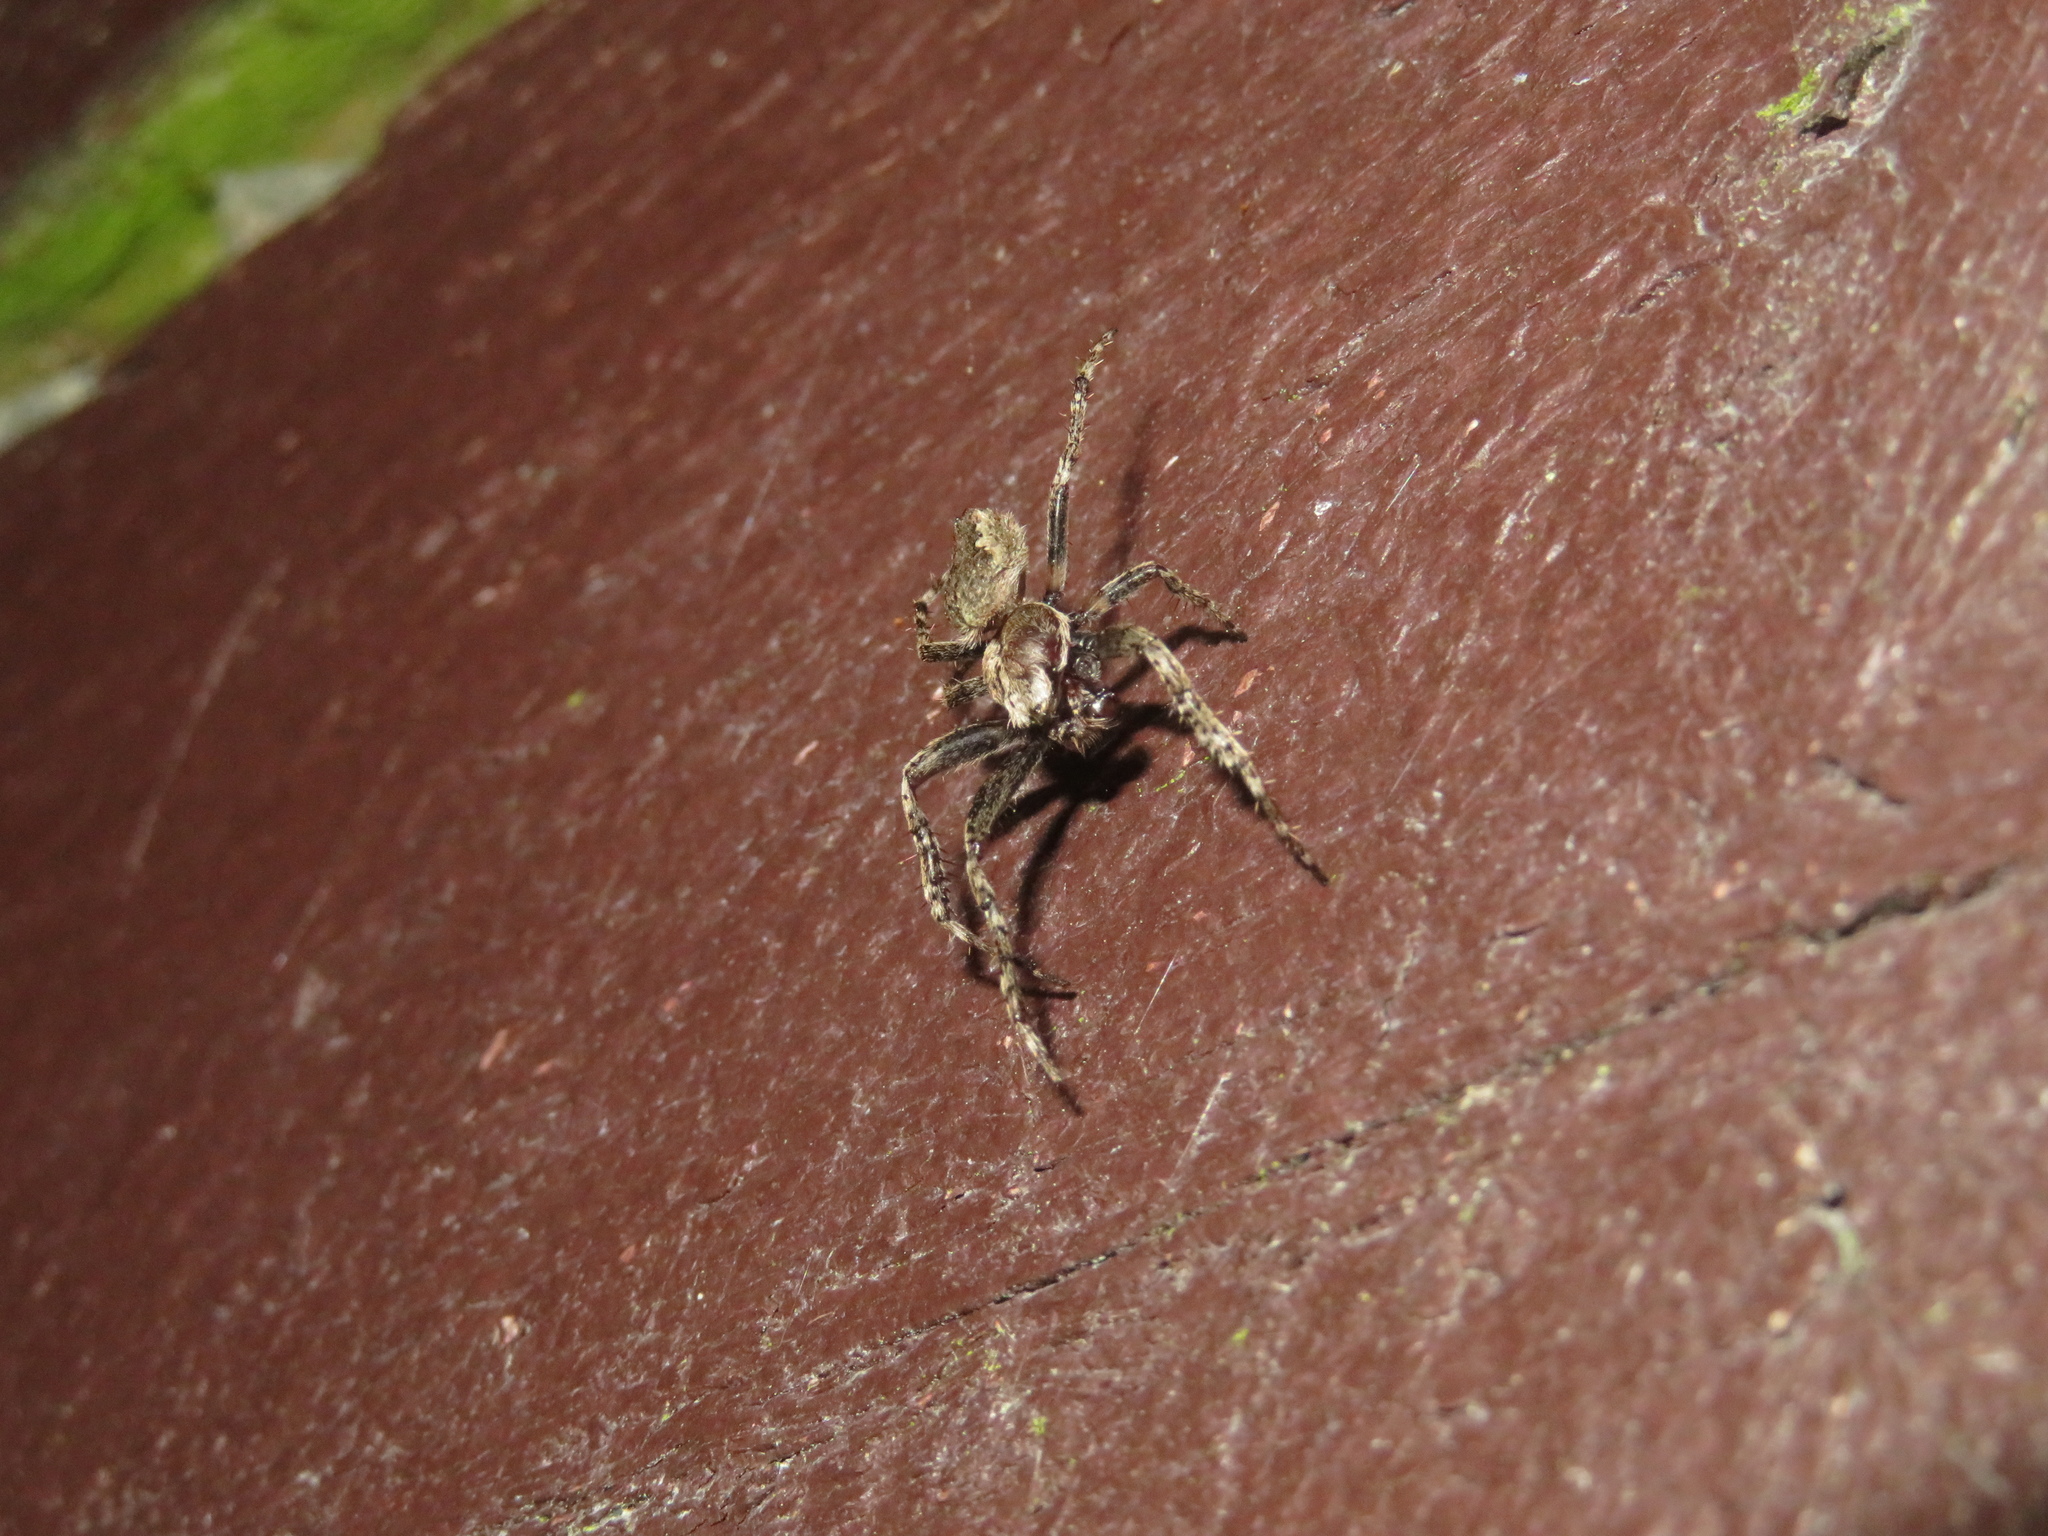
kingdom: Animalia
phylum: Arthropoda
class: Arachnida
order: Araneae
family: Araneidae
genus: Eriophora
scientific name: Eriophora pustulosa
